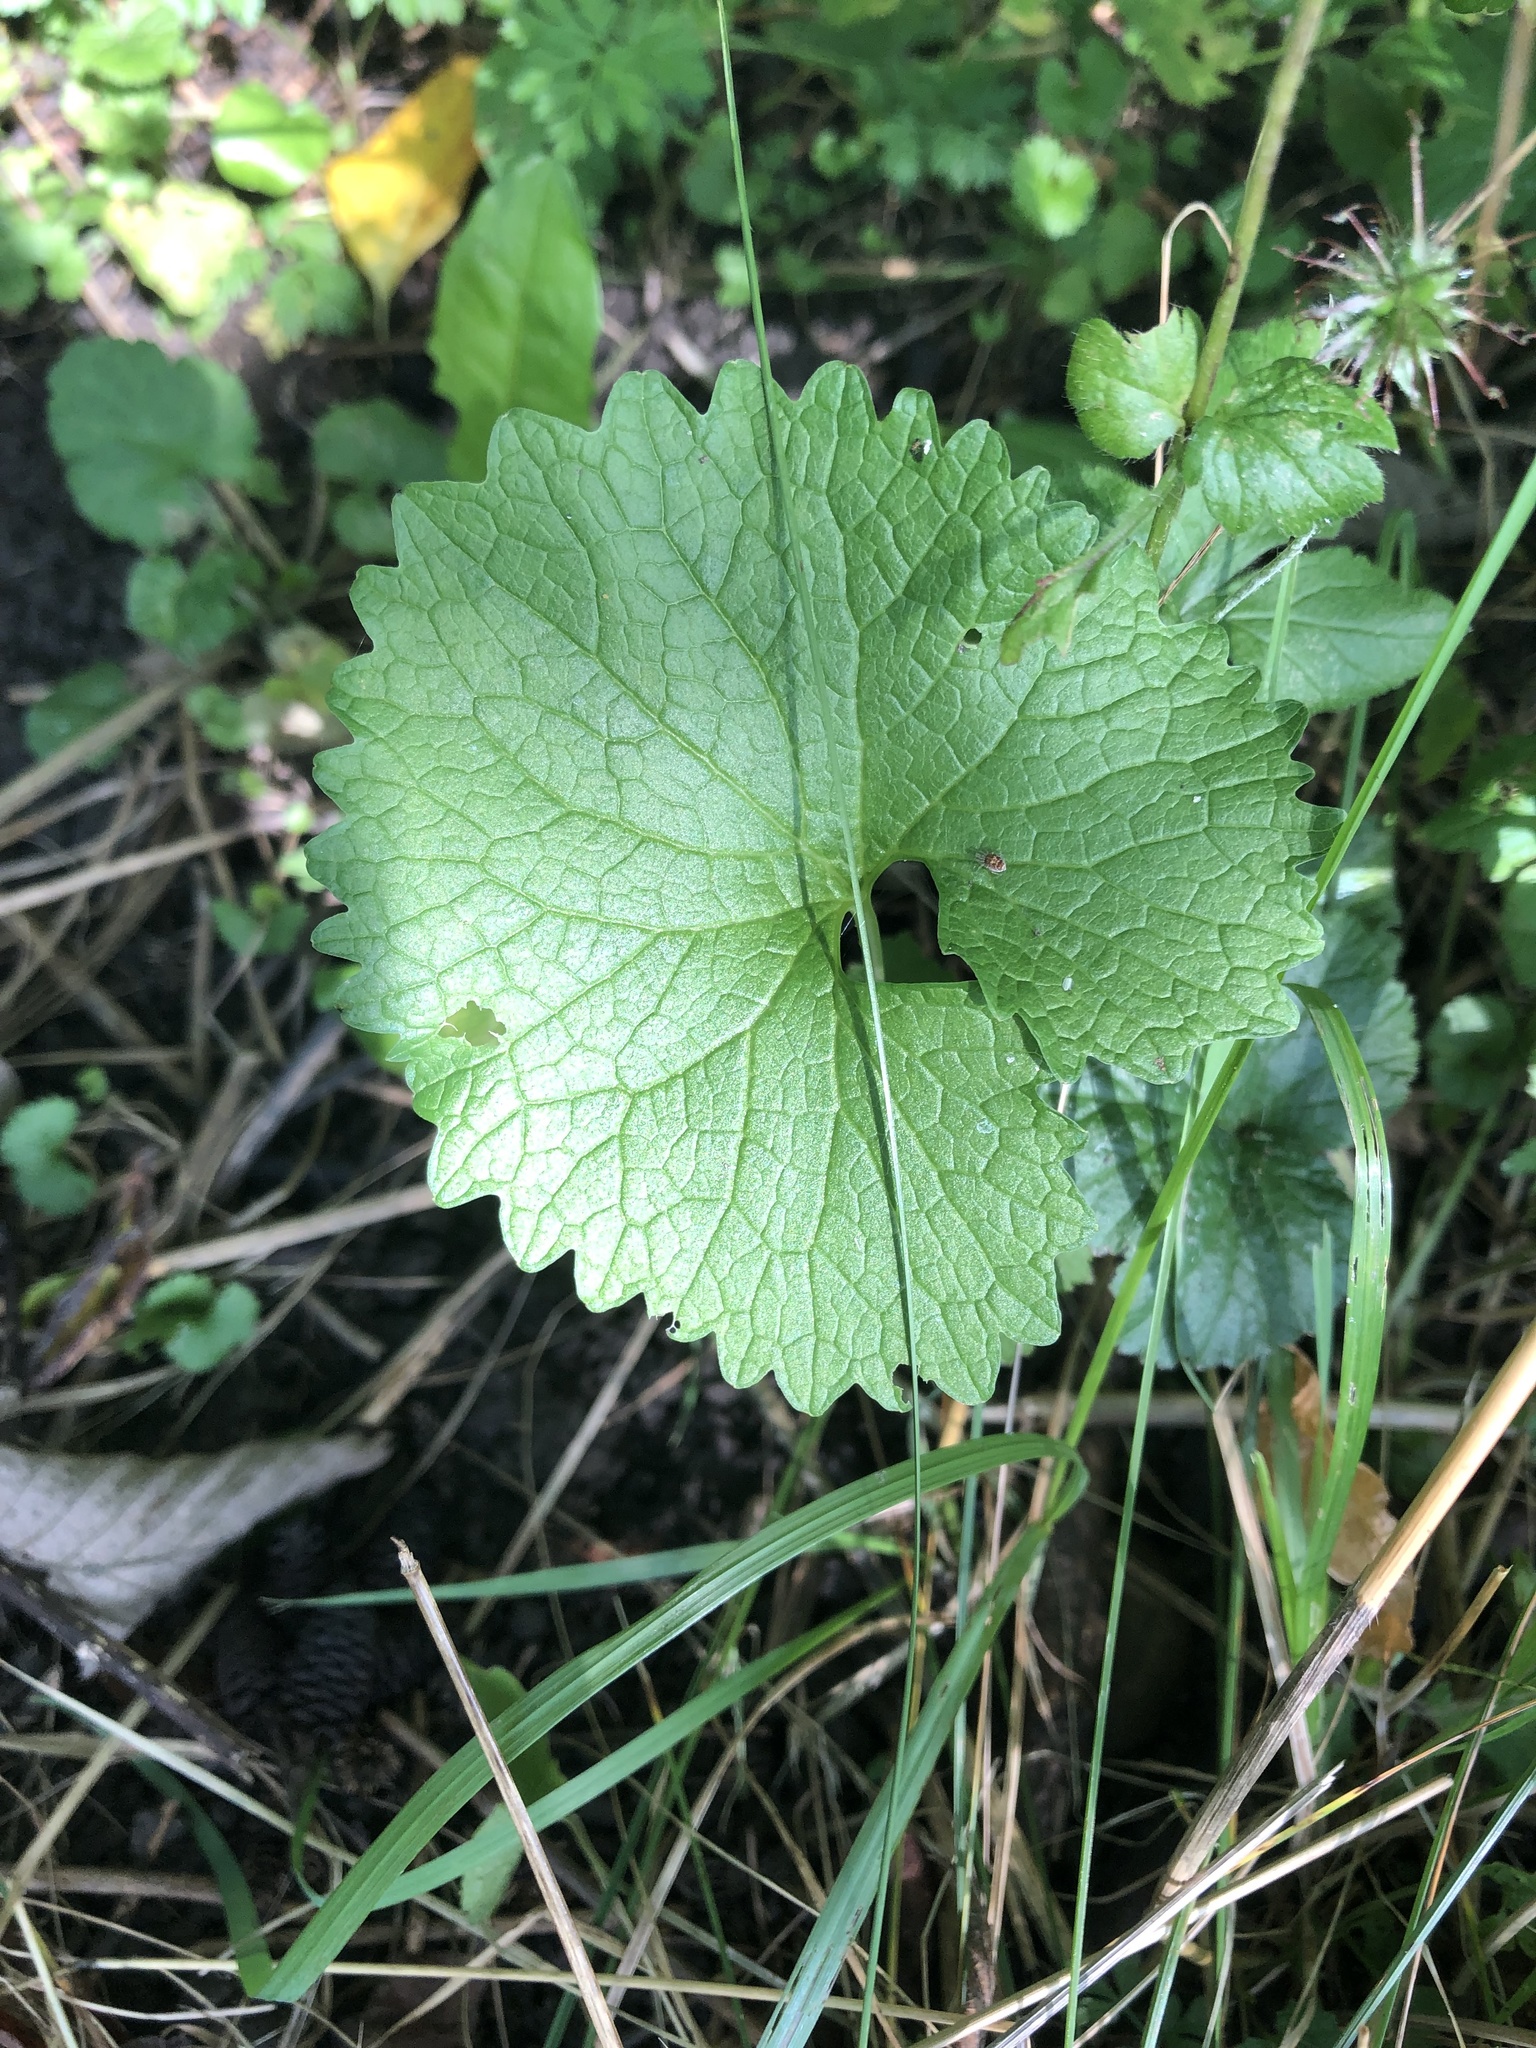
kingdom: Plantae
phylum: Tracheophyta
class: Magnoliopsida
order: Brassicales
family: Brassicaceae
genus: Alliaria
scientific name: Alliaria petiolata
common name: Garlic mustard
